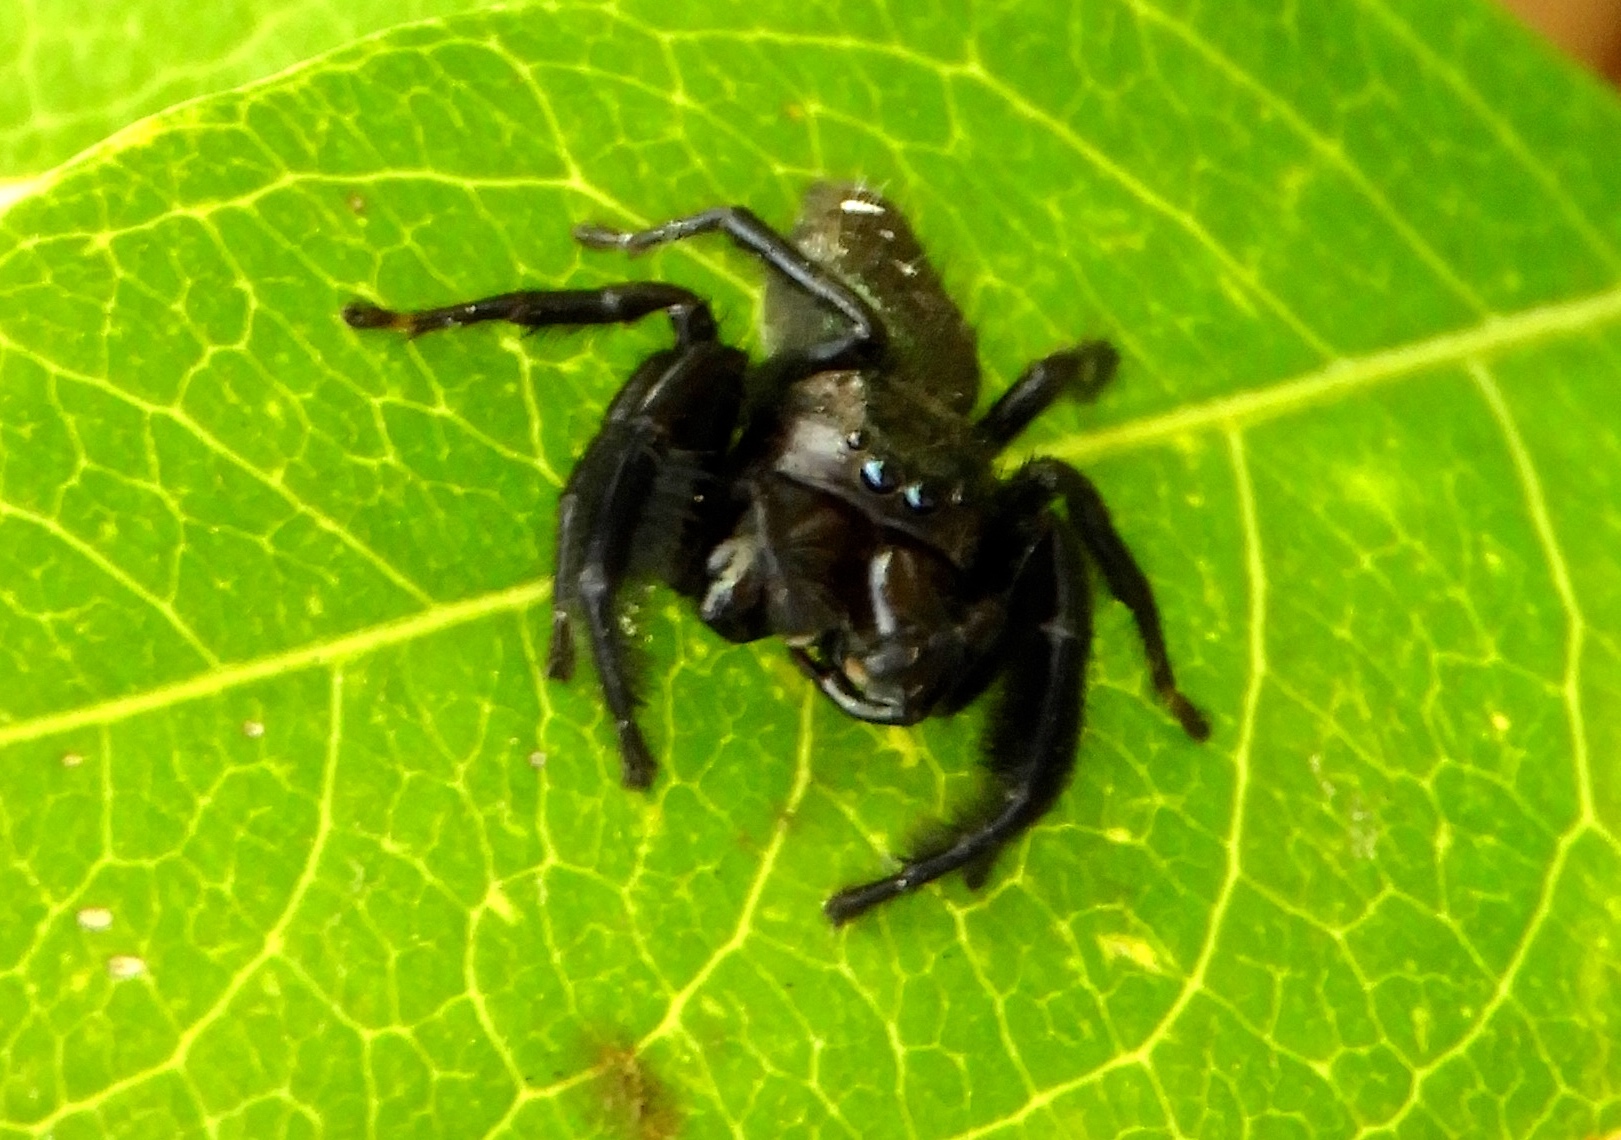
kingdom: Animalia
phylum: Arthropoda
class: Arachnida
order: Araneae
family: Salticidae
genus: Paraphidippus
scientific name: Paraphidippus fartilis
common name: Jumping spiders
